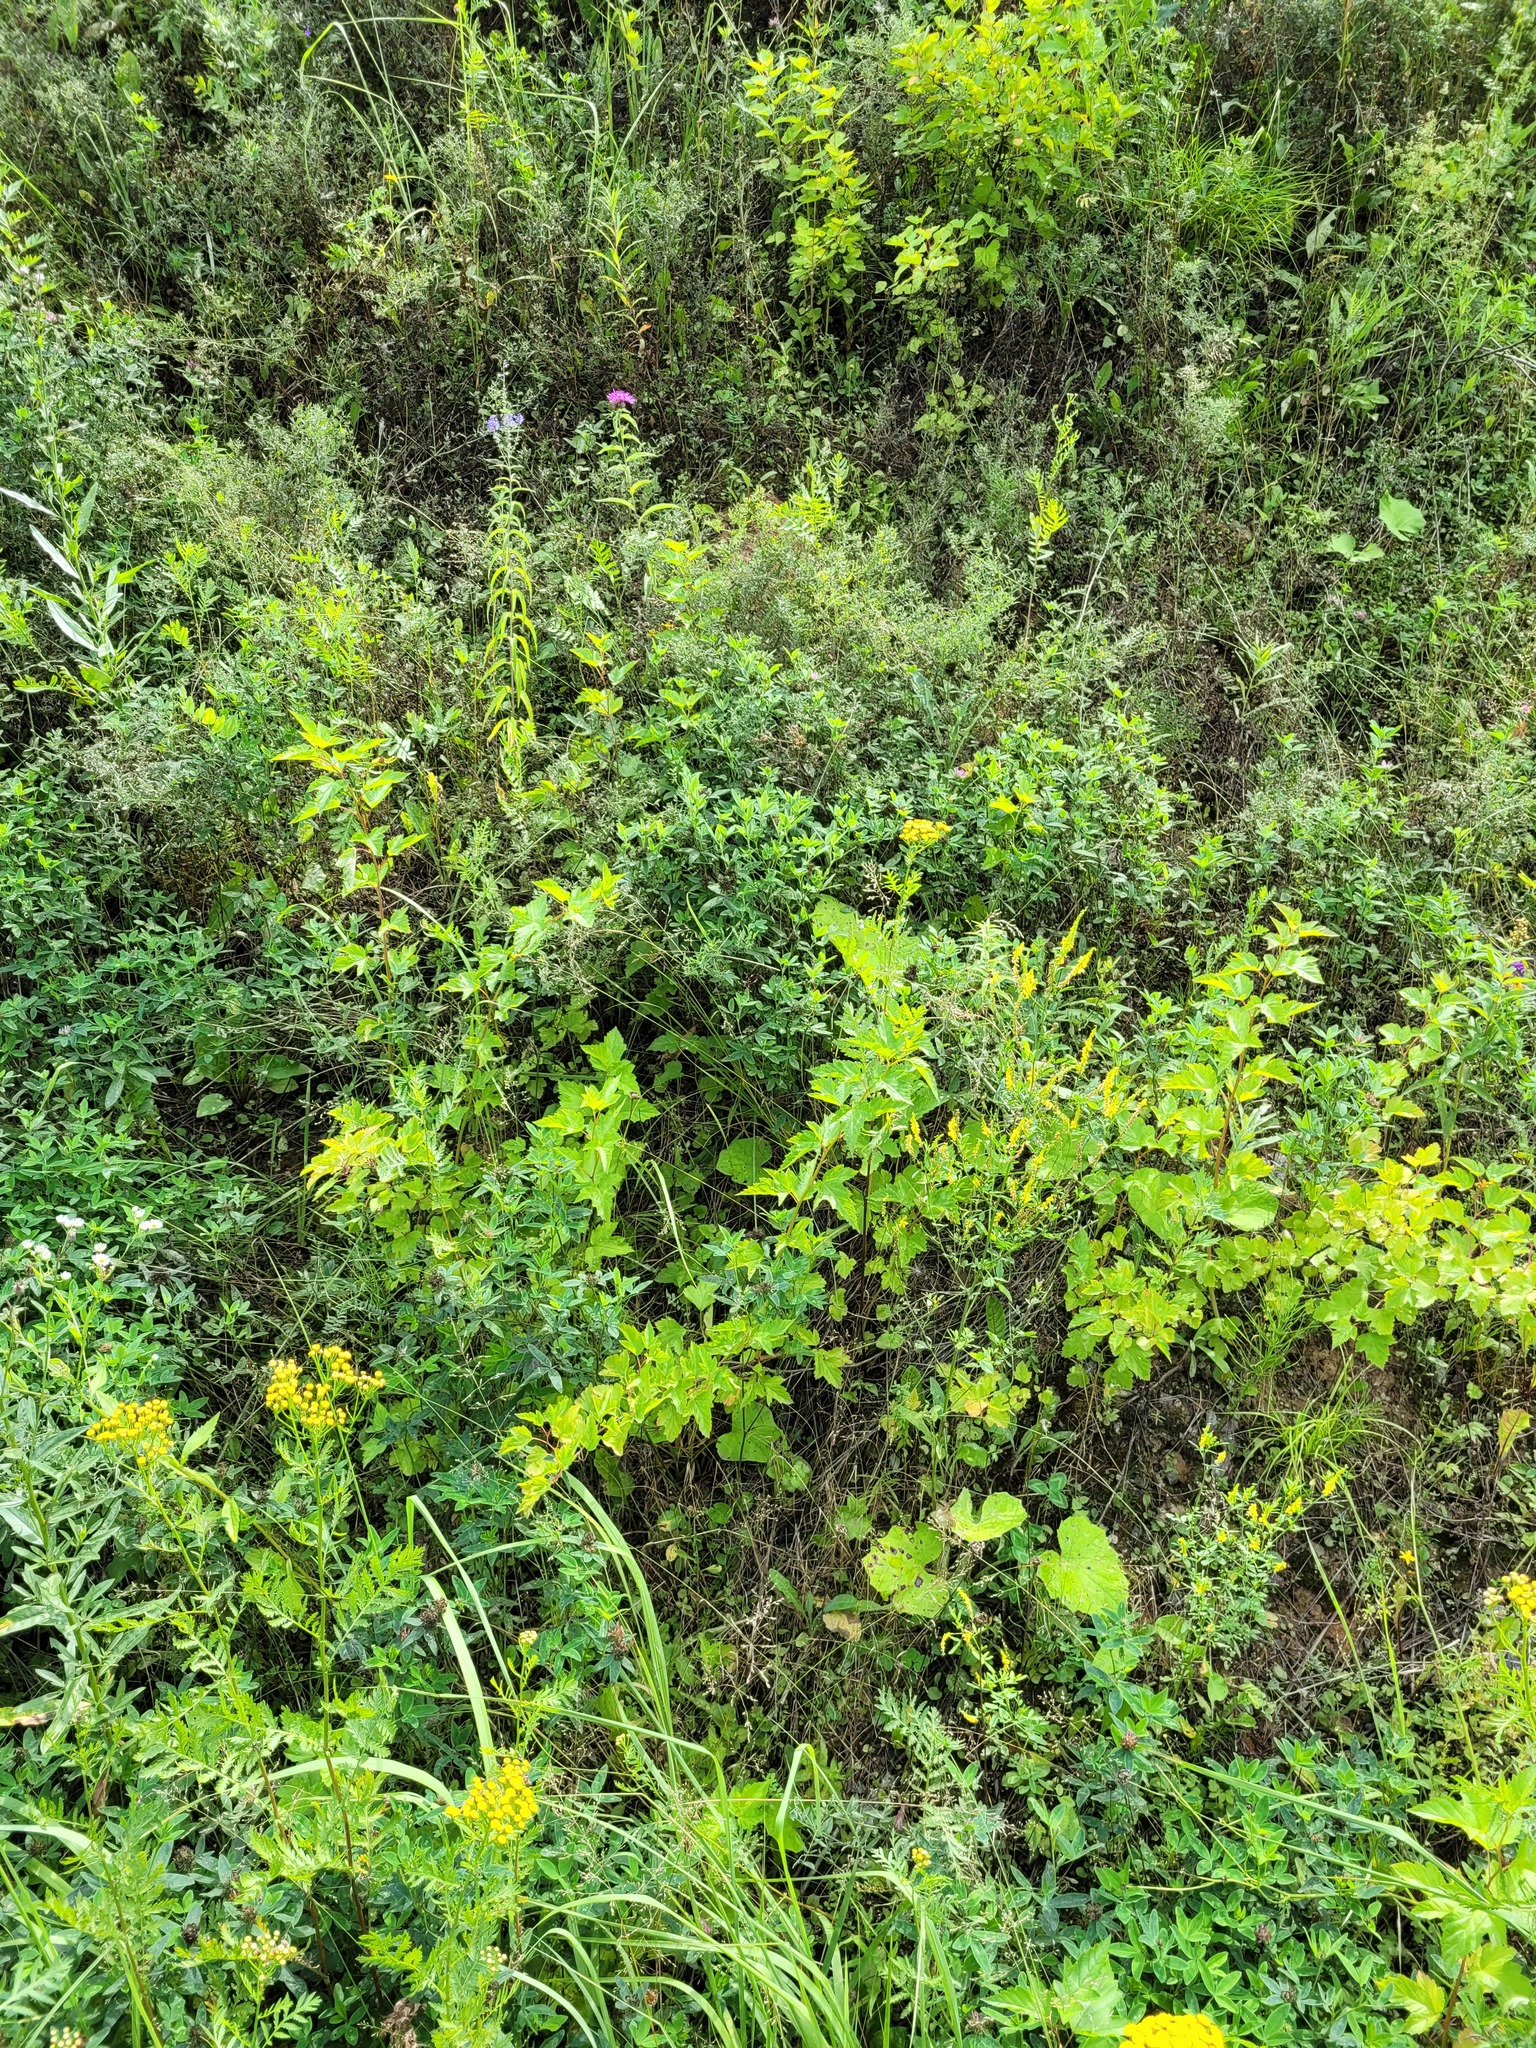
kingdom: Plantae
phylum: Tracheophyta
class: Magnoliopsida
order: Rosales
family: Rosaceae
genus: Physocarpus
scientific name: Physocarpus opulifolius
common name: Ninebark
